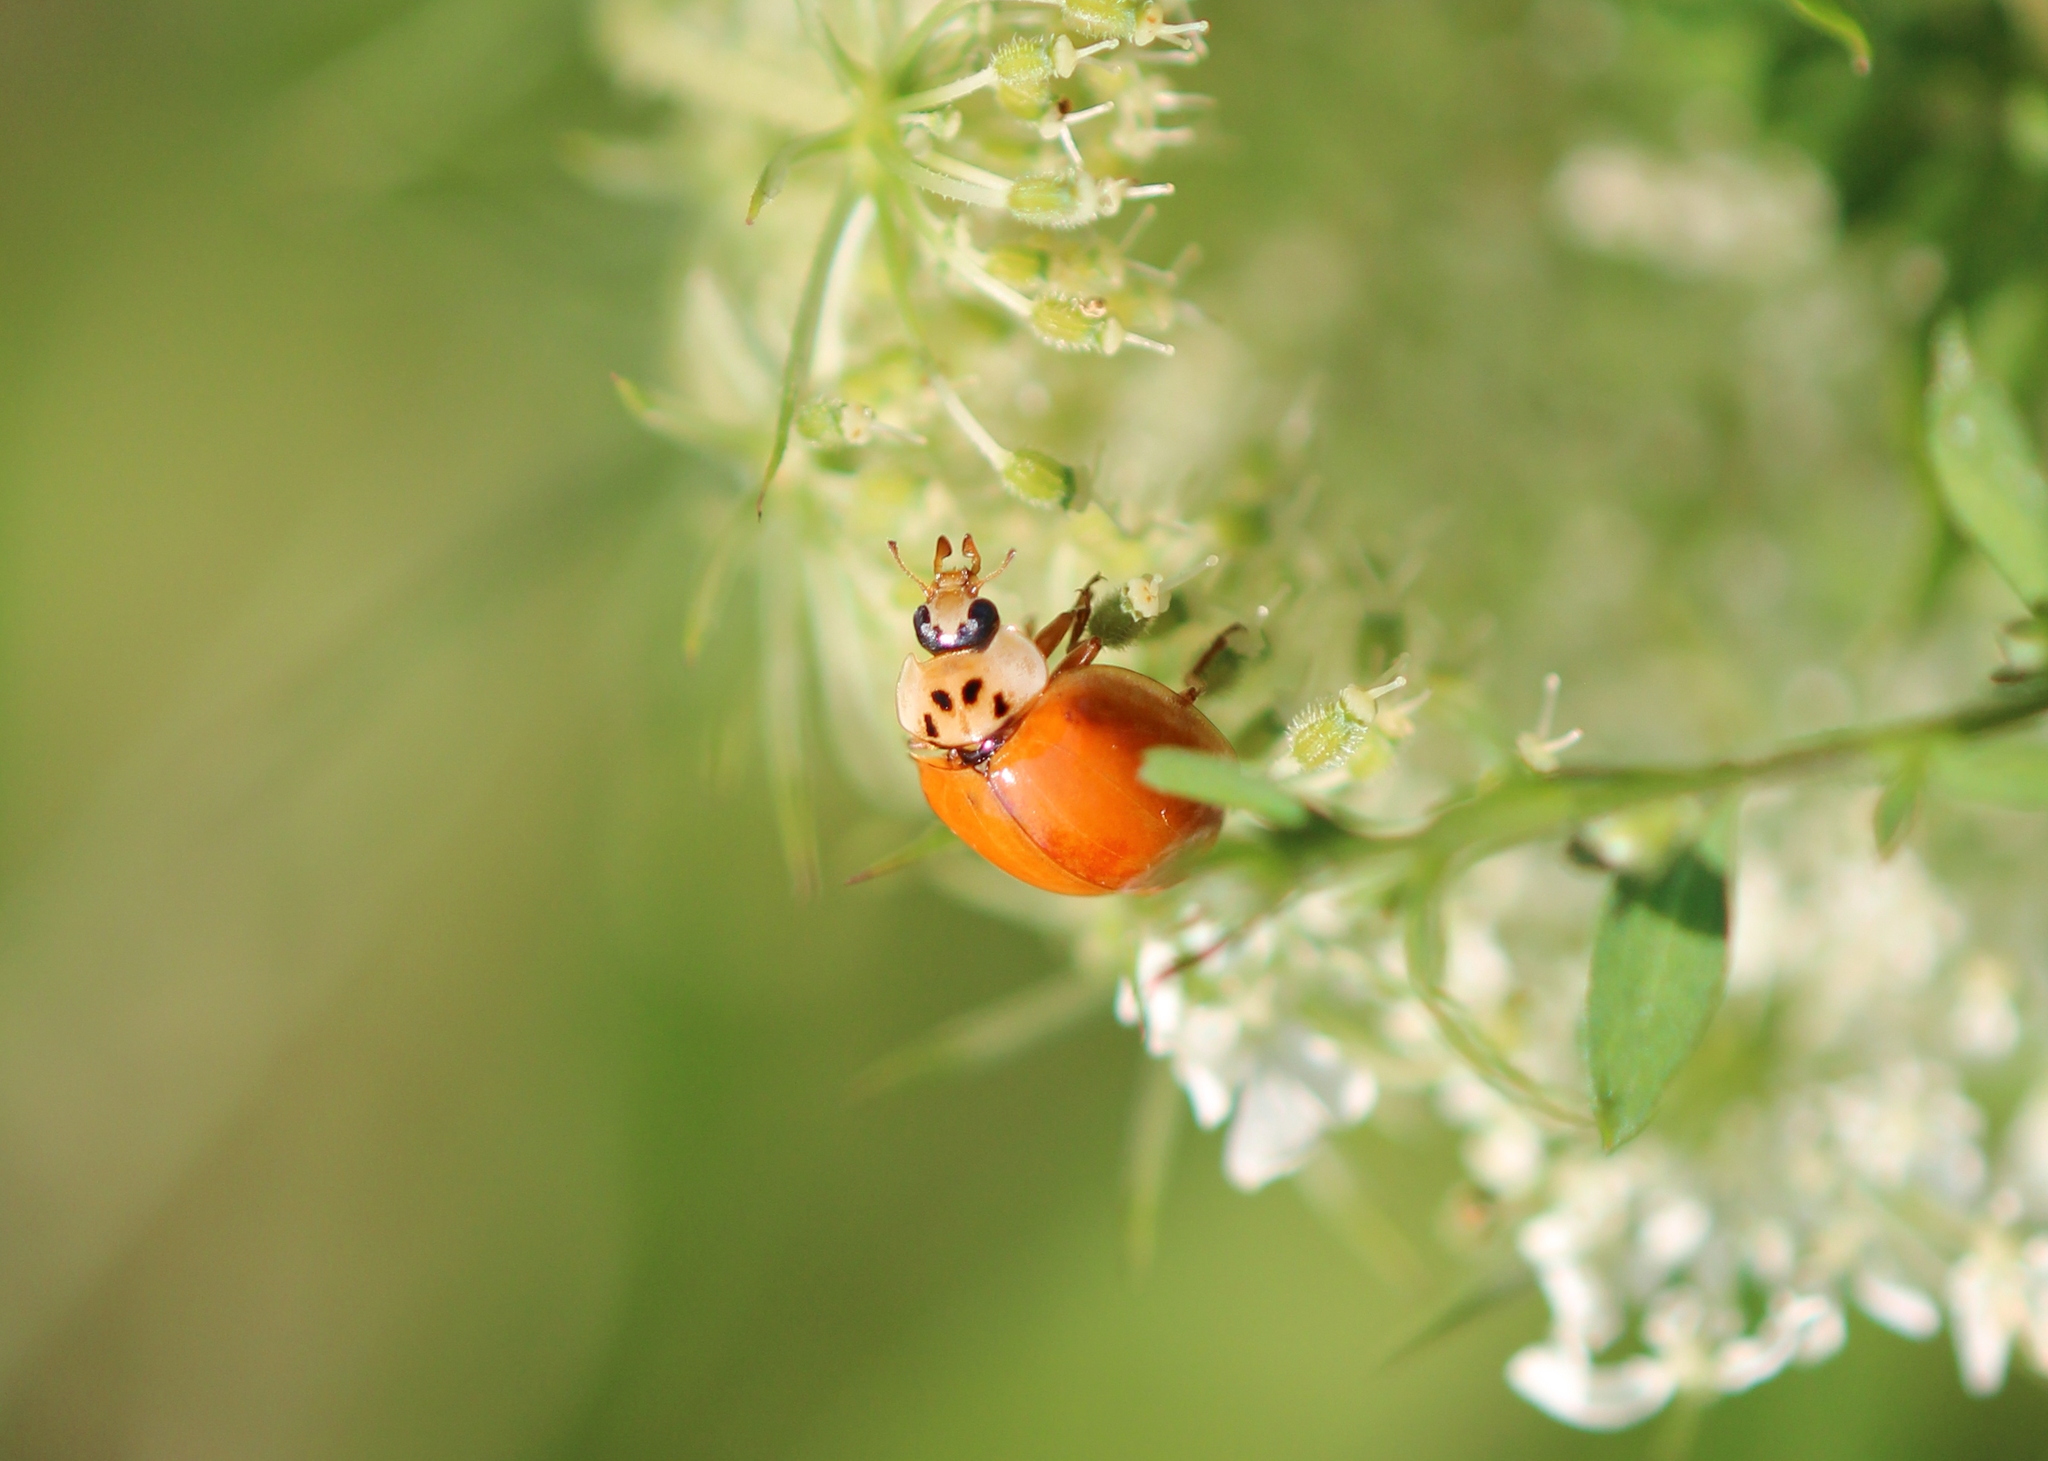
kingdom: Animalia
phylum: Arthropoda
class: Insecta
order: Coleoptera
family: Coccinellidae
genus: Harmonia
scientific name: Harmonia axyridis
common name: Harlequin ladybird
